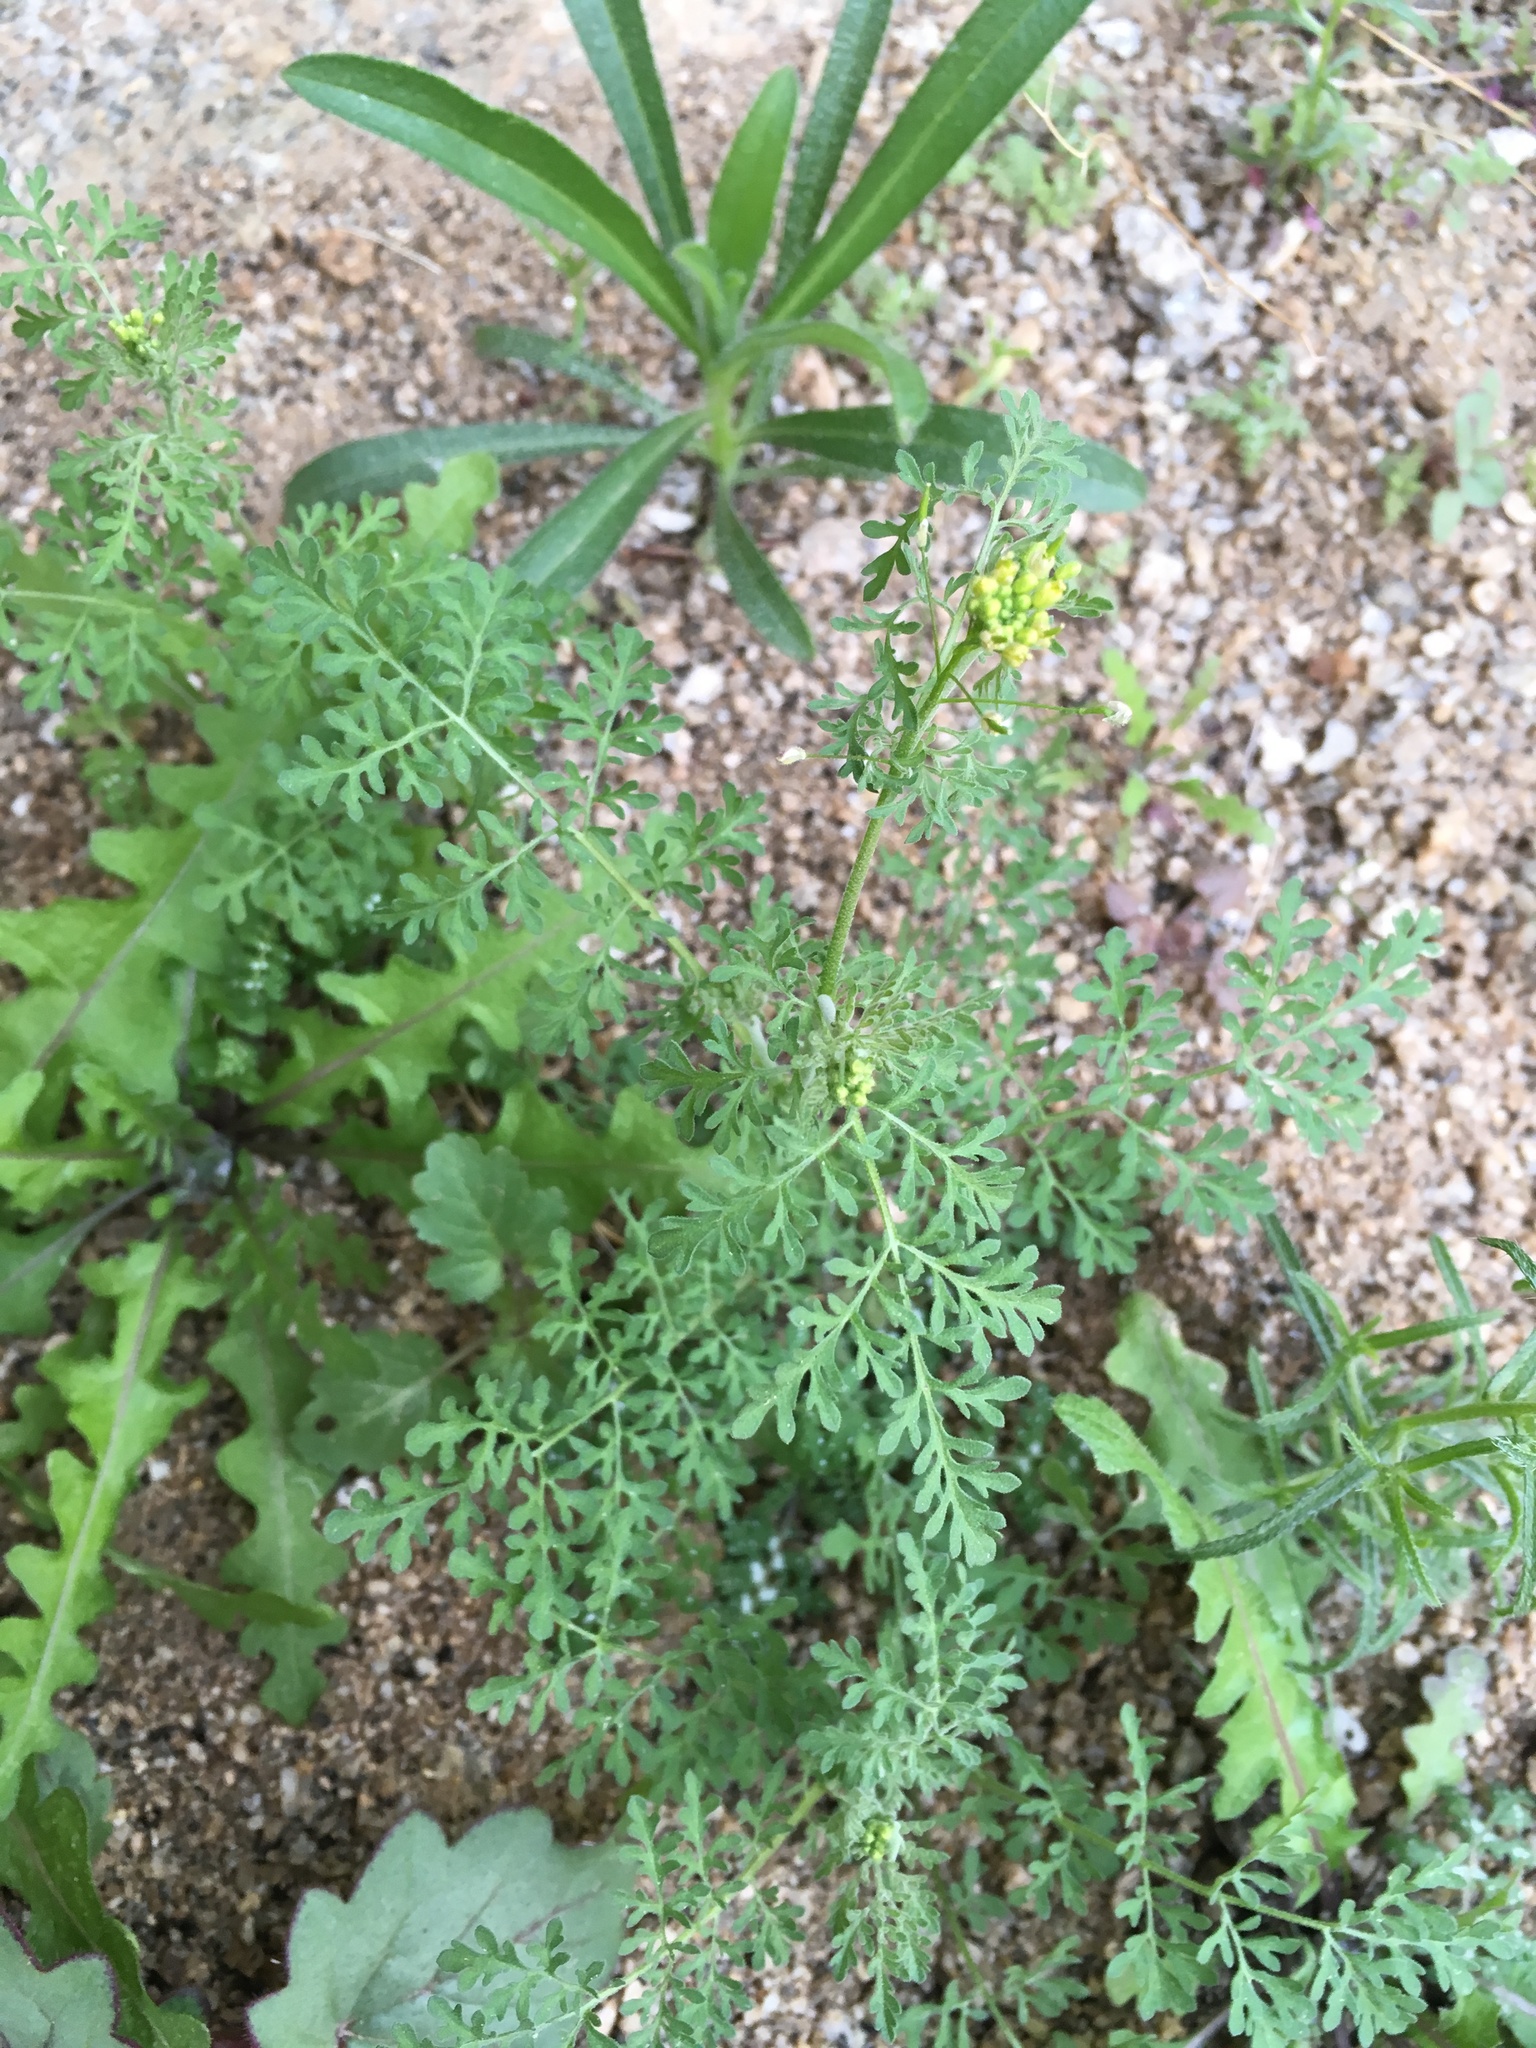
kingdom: Plantae
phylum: Tracheophyta
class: Magnoliopsida
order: Brassicales
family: Brassicaceae
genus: Descurainia
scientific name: Descurainia pinnata
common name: Western tansy mustard
